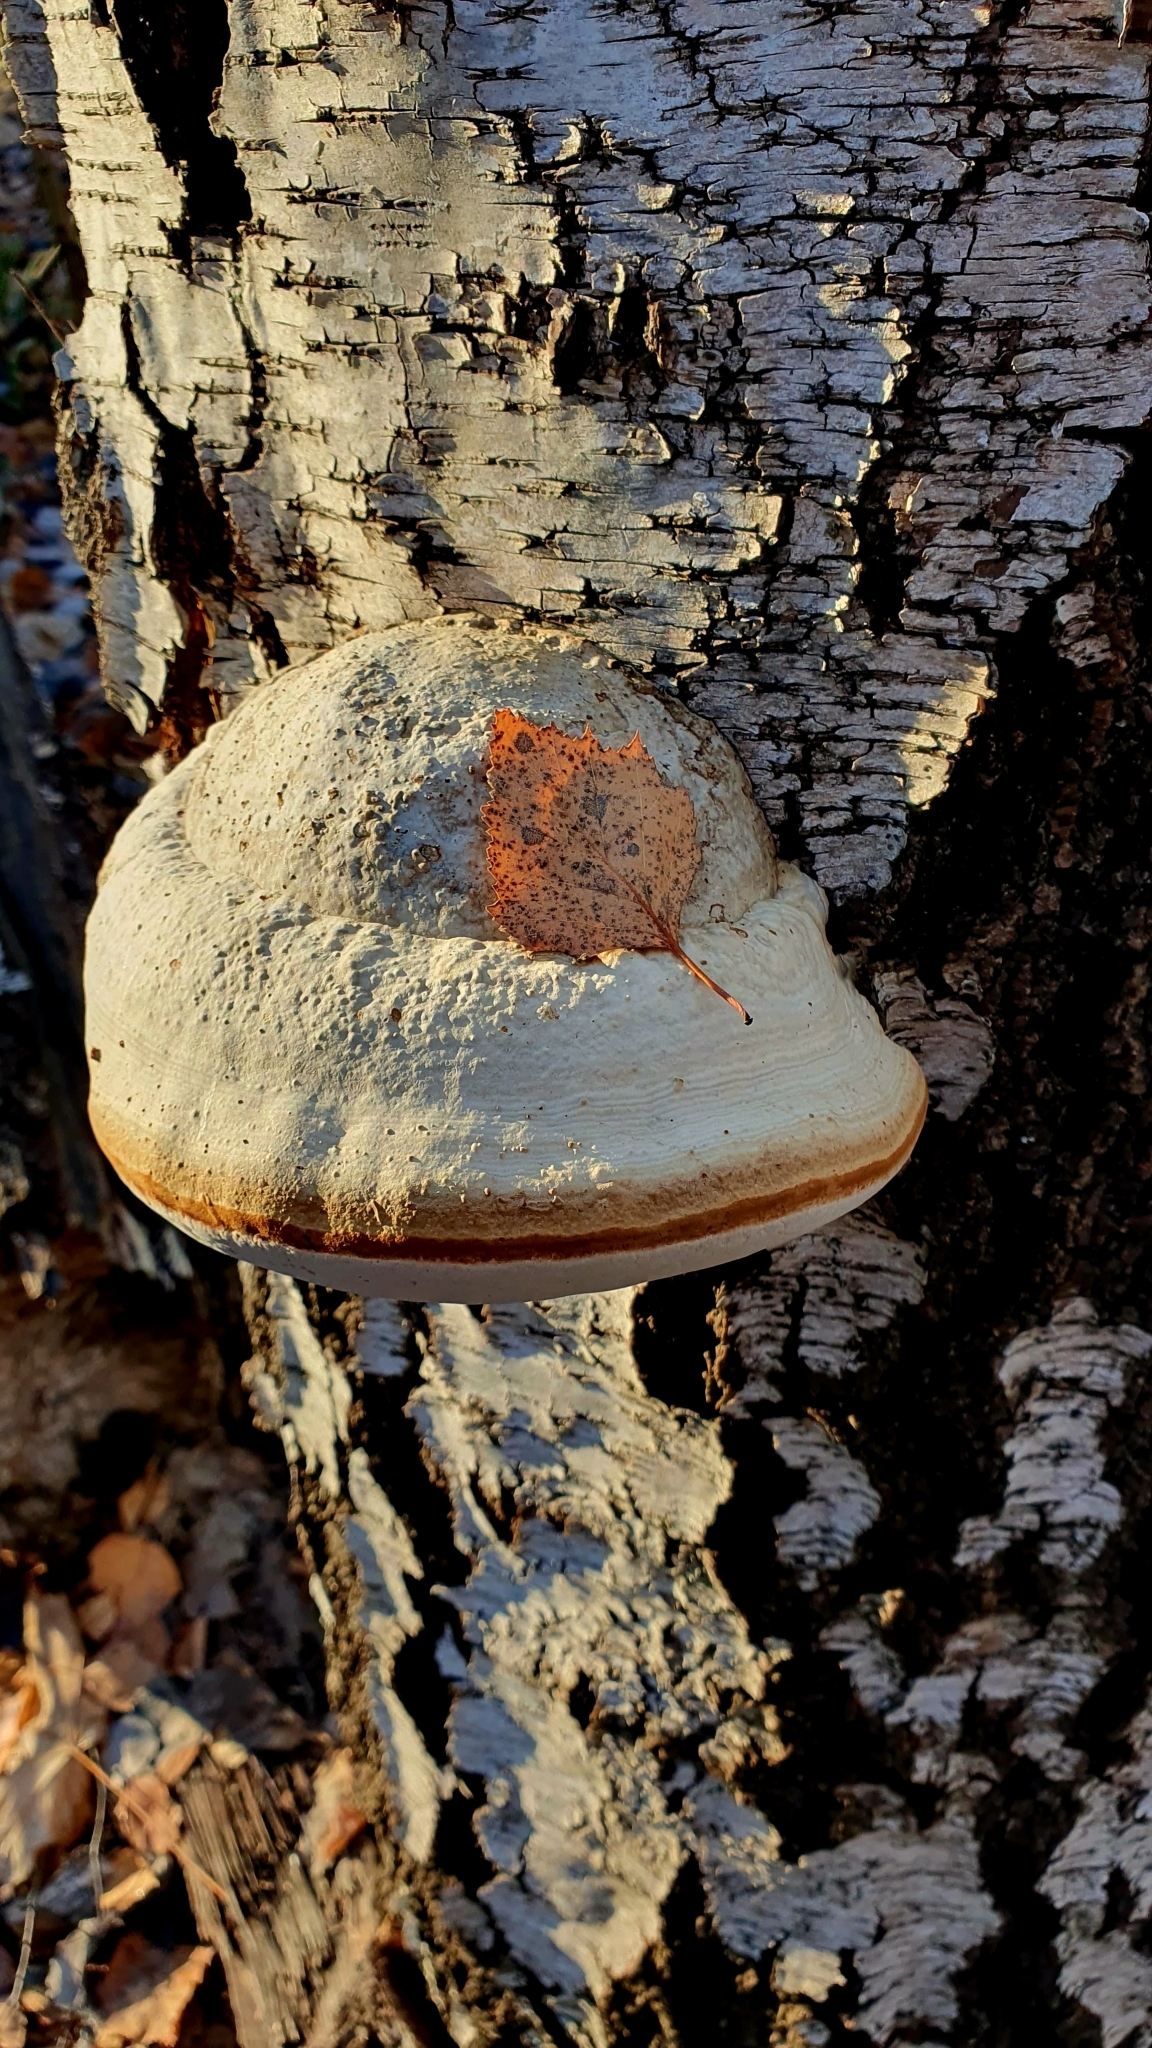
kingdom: Fungi
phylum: Basidiomycota
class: Agaricomycetes
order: Polyporales
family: Polyporaceae
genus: Fomes
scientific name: Fomes fomentarius
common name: Hoof fungus
